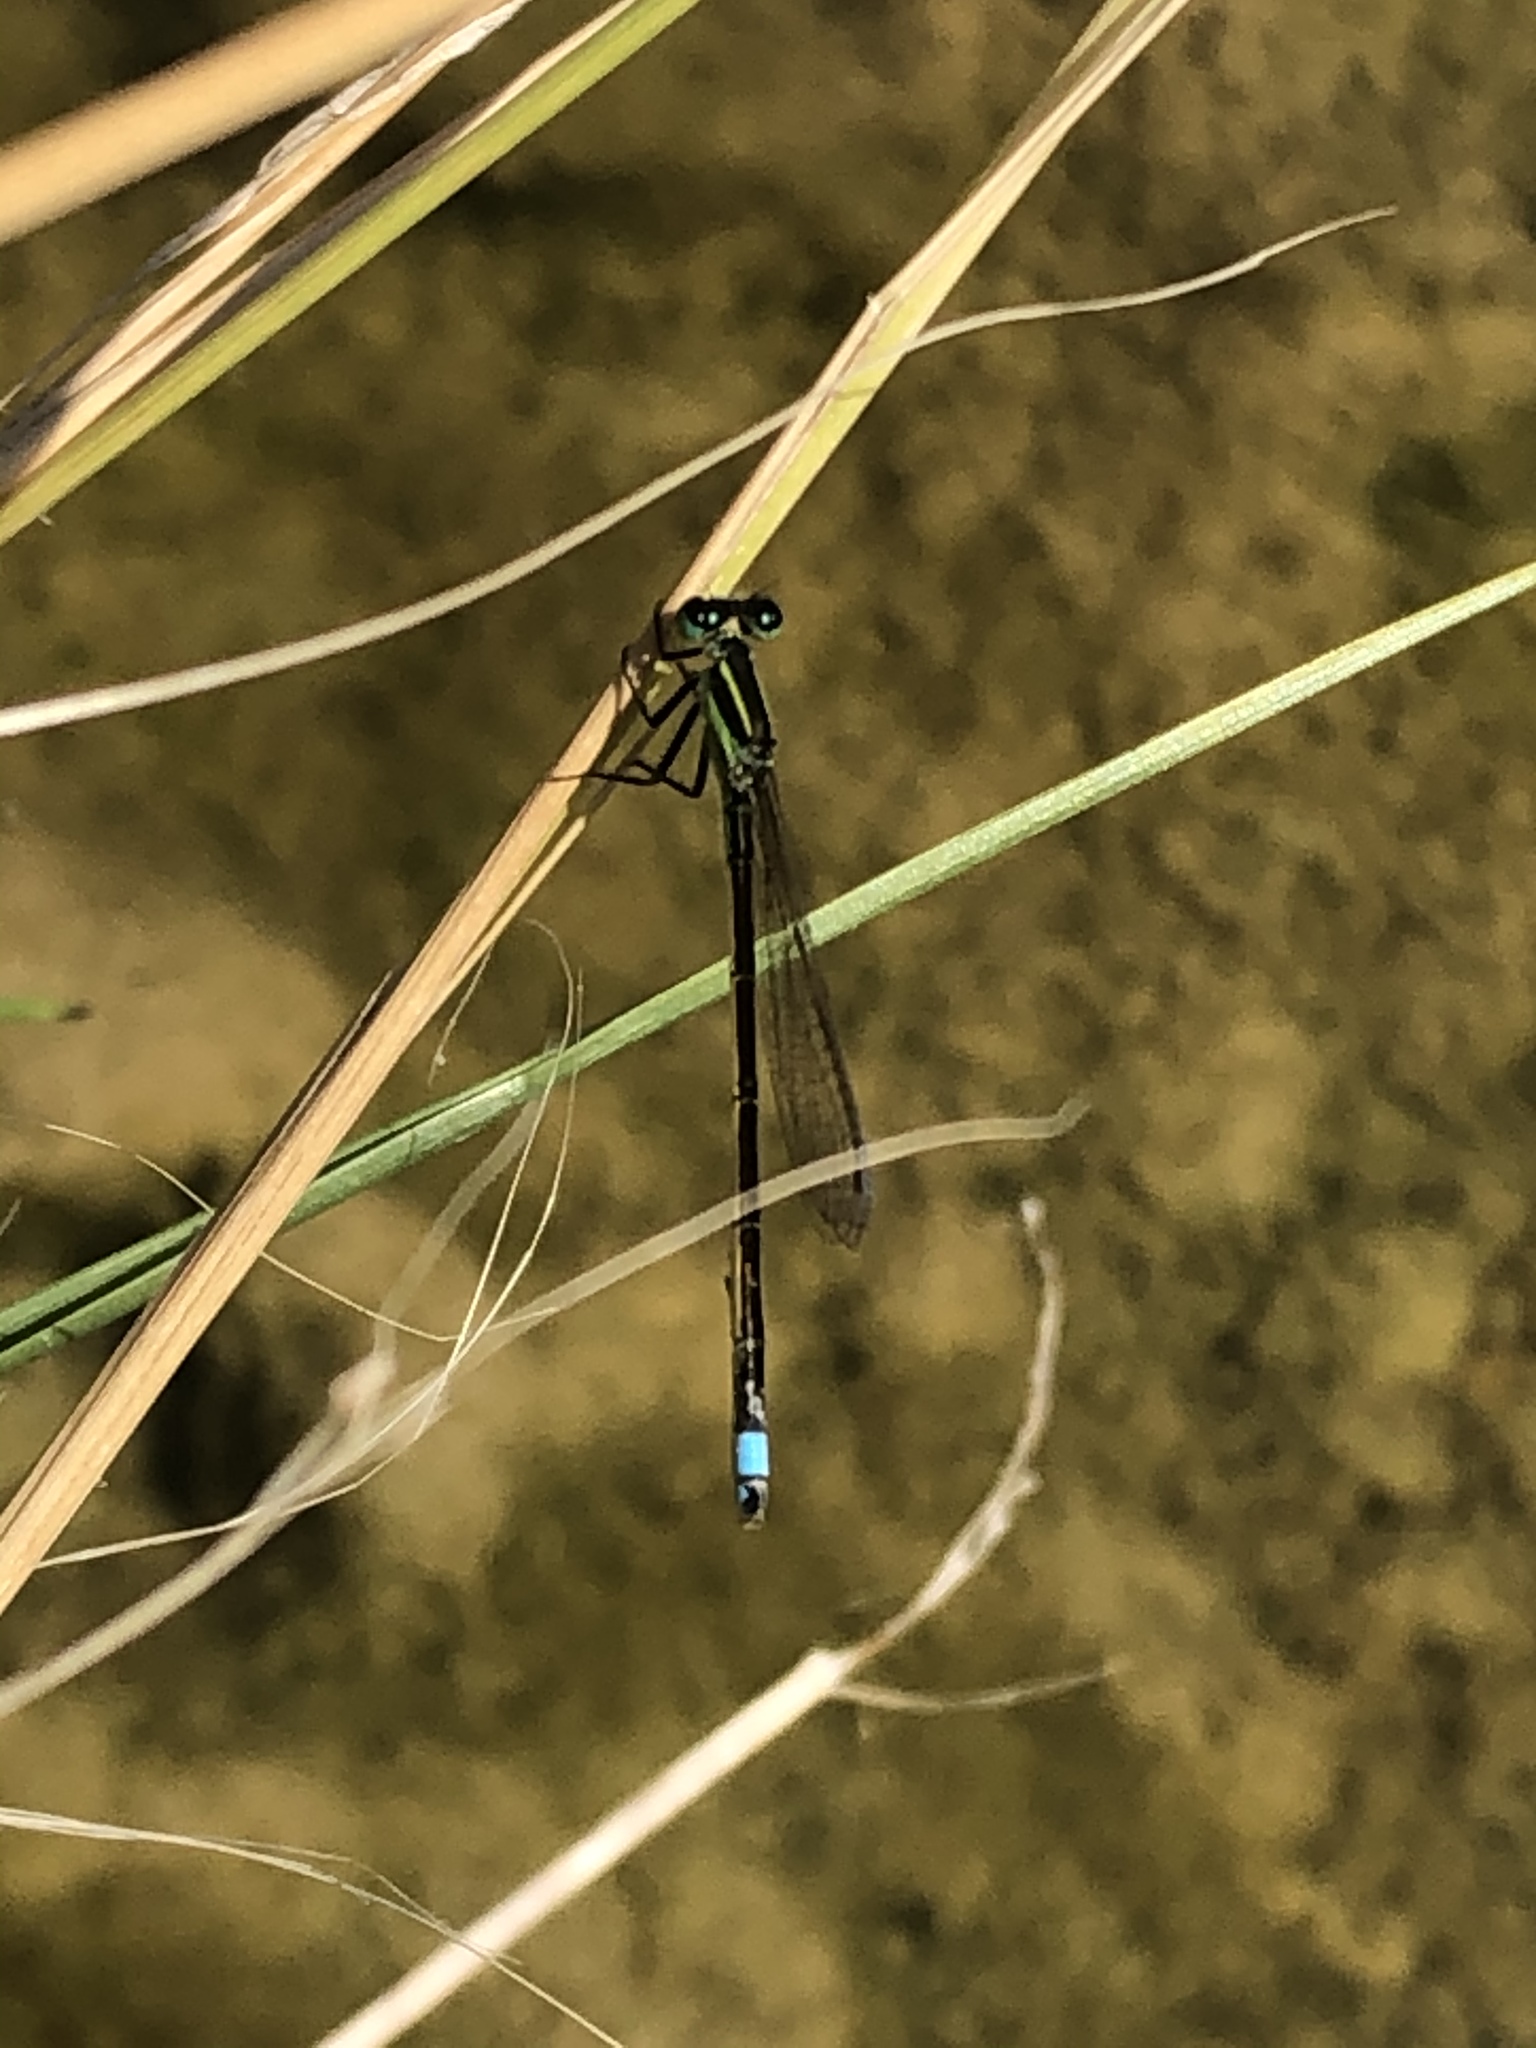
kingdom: Animalia
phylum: Arthropoda
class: Insecta
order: Odonata
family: Coenagrionidae
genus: Ischnura
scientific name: Ischnura ramburii
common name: Rambur's forktail
